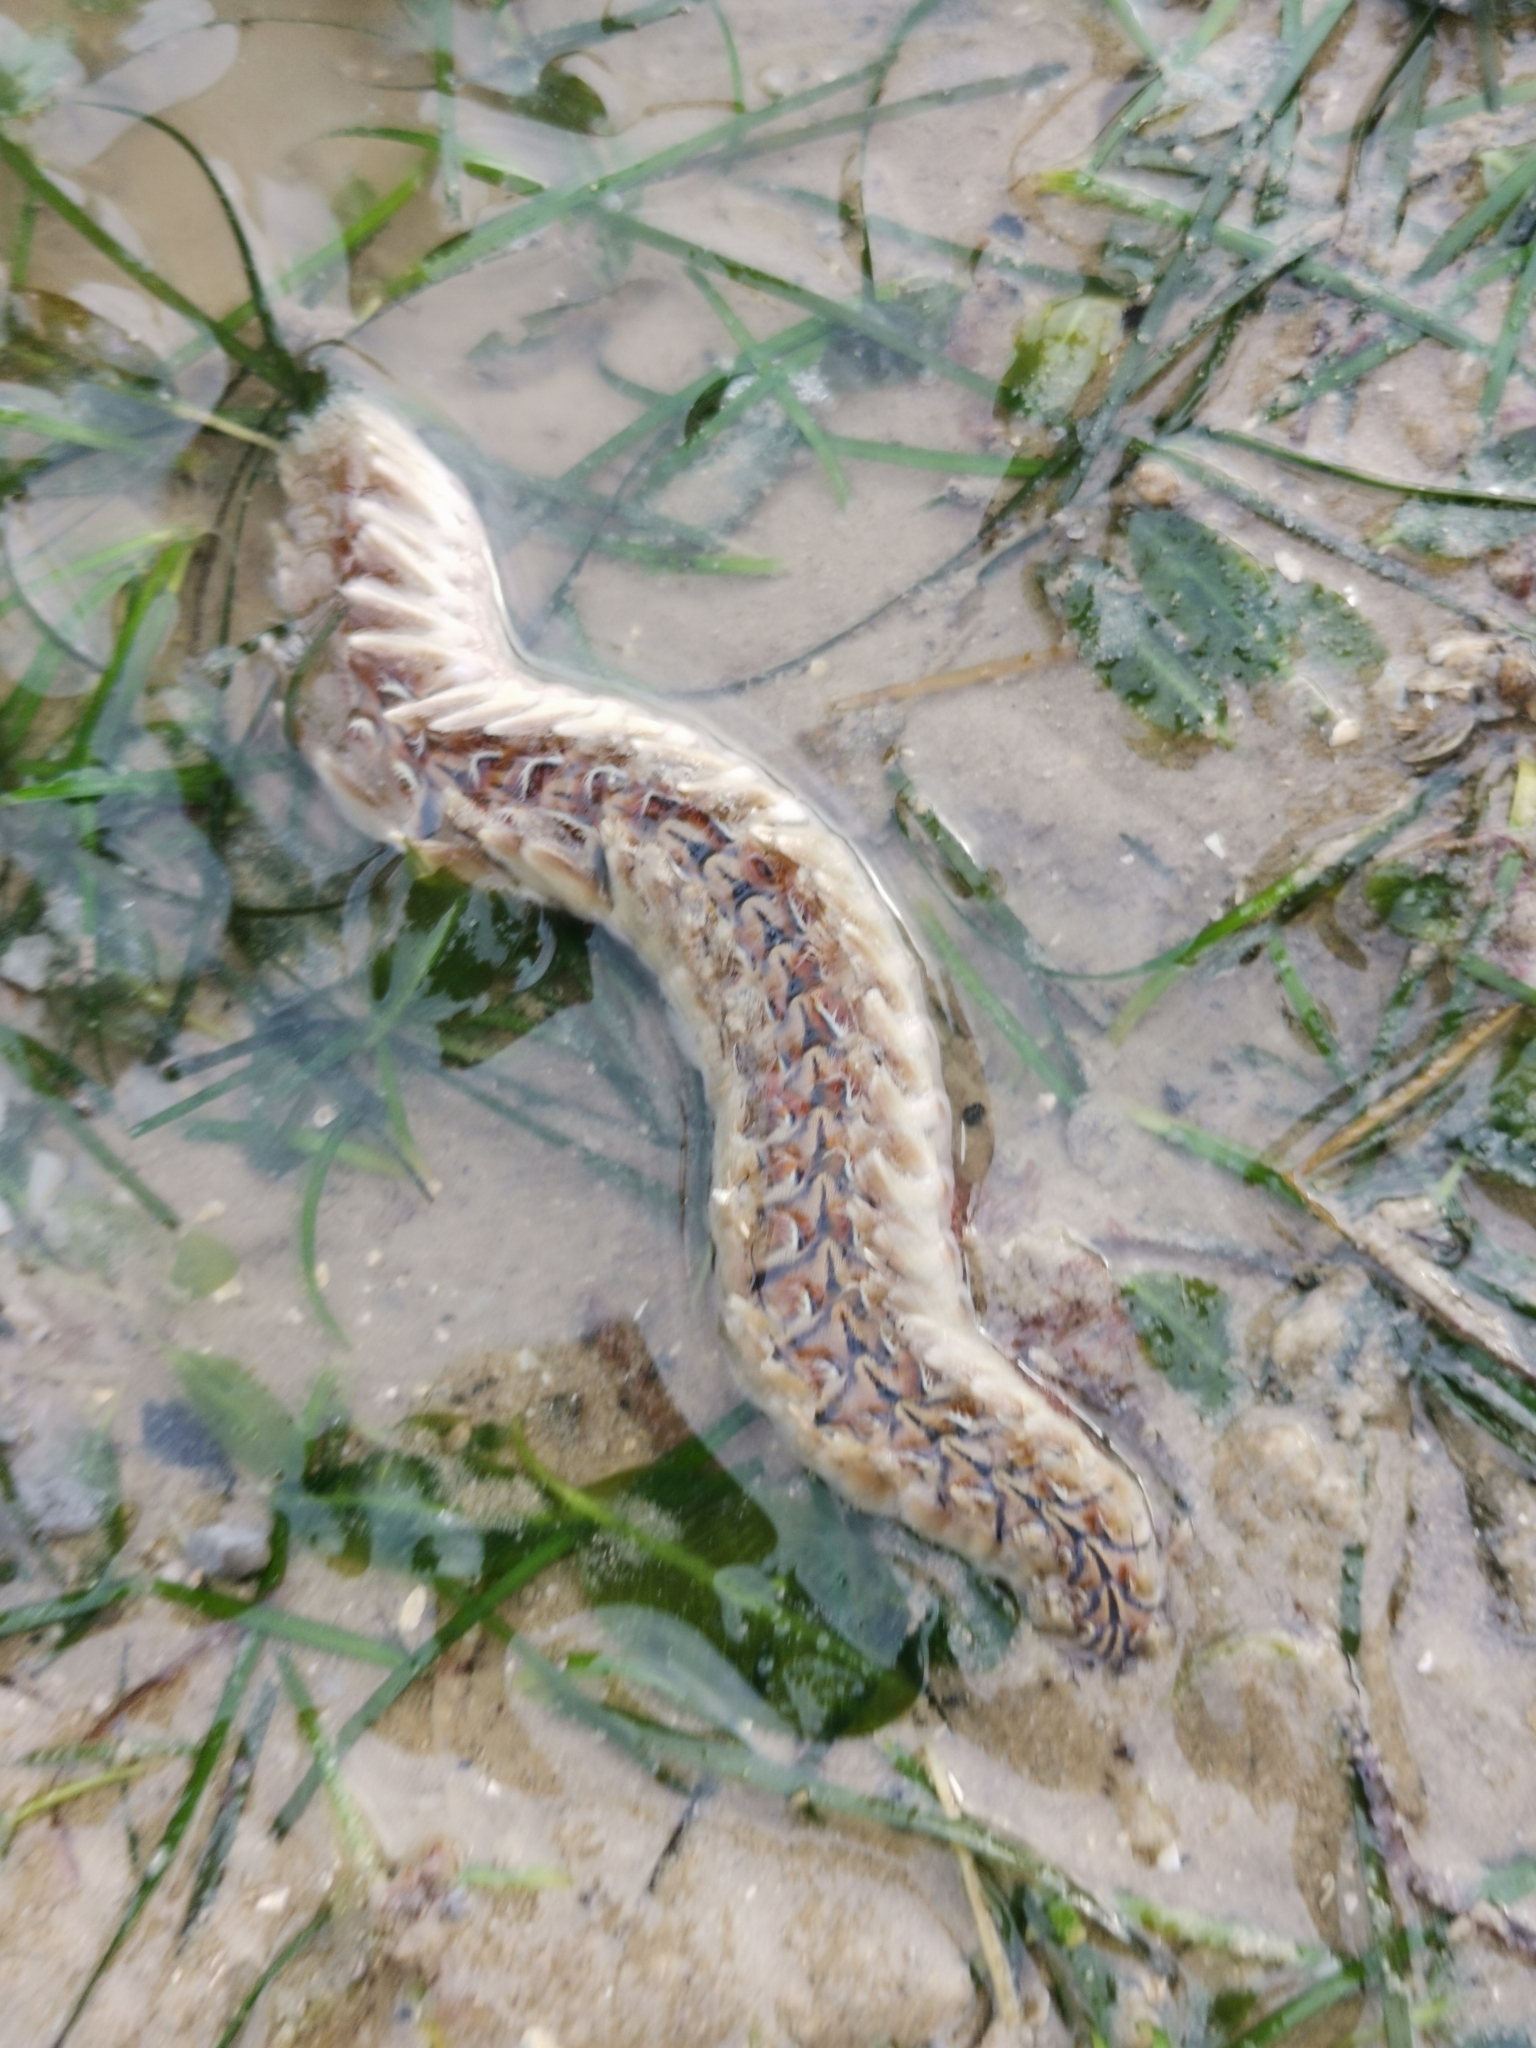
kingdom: Animalia
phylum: Annelida
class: Polychaeta
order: Amphinomida
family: Amphinomidae
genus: Chloeia
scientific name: Chloeia incerta
